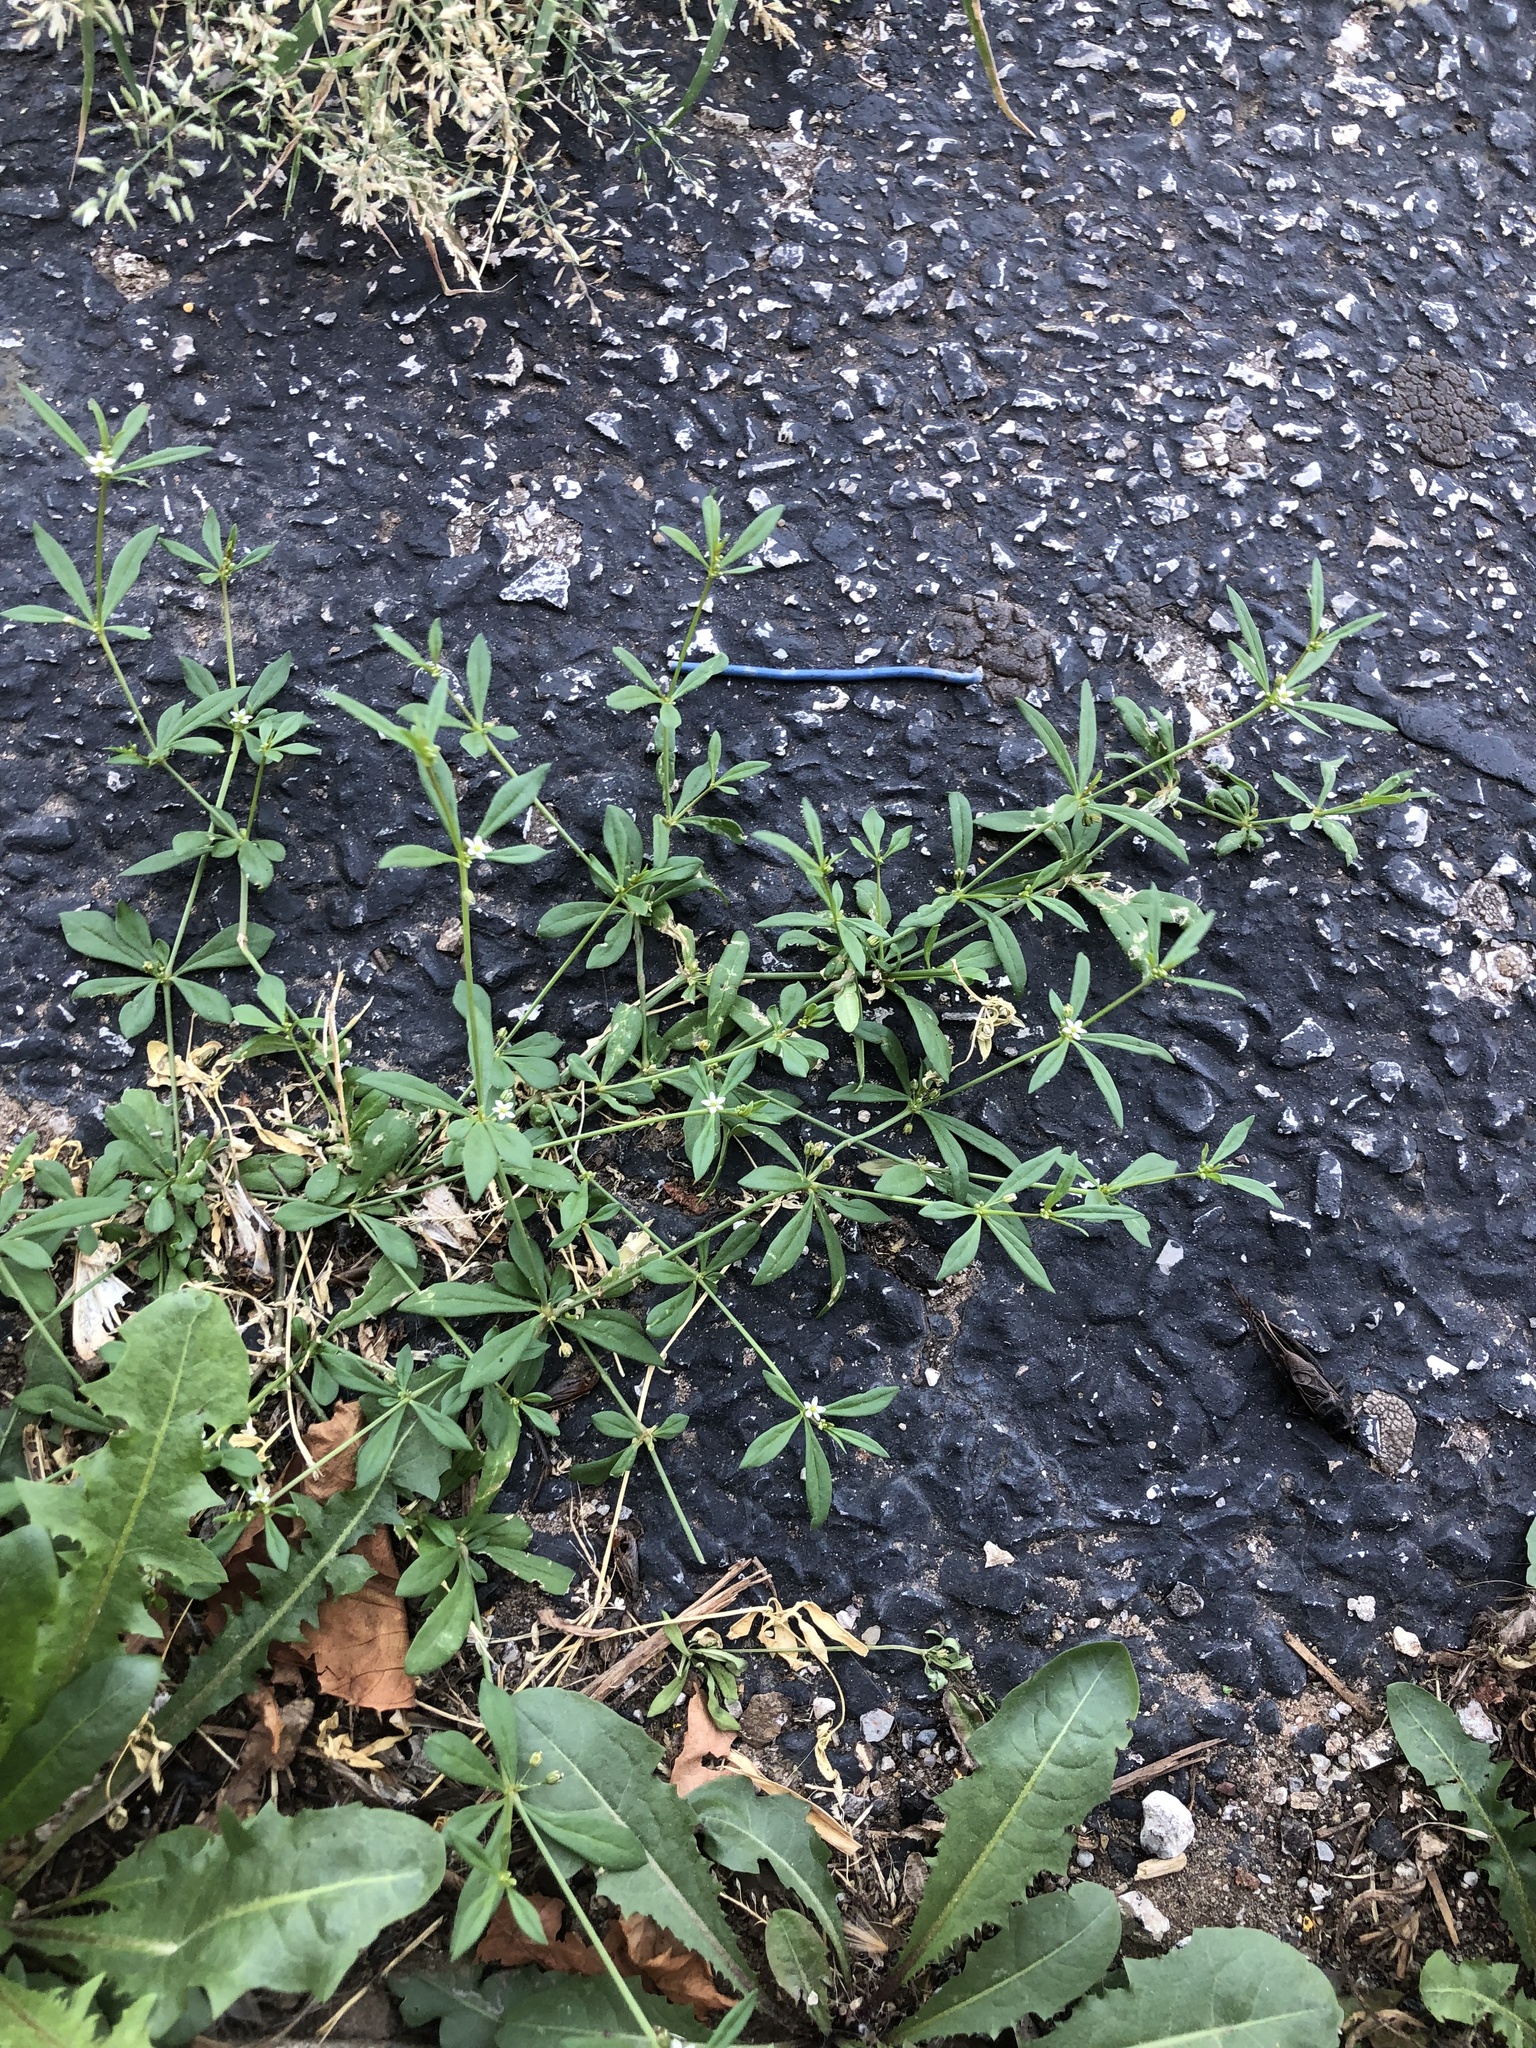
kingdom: Plantae
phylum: Tracheophyta
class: Magnoliopsida
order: Caryophyllales
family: Molluginaceae
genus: Mollugo
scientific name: Mollugo verticillata
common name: Green carpetweed
